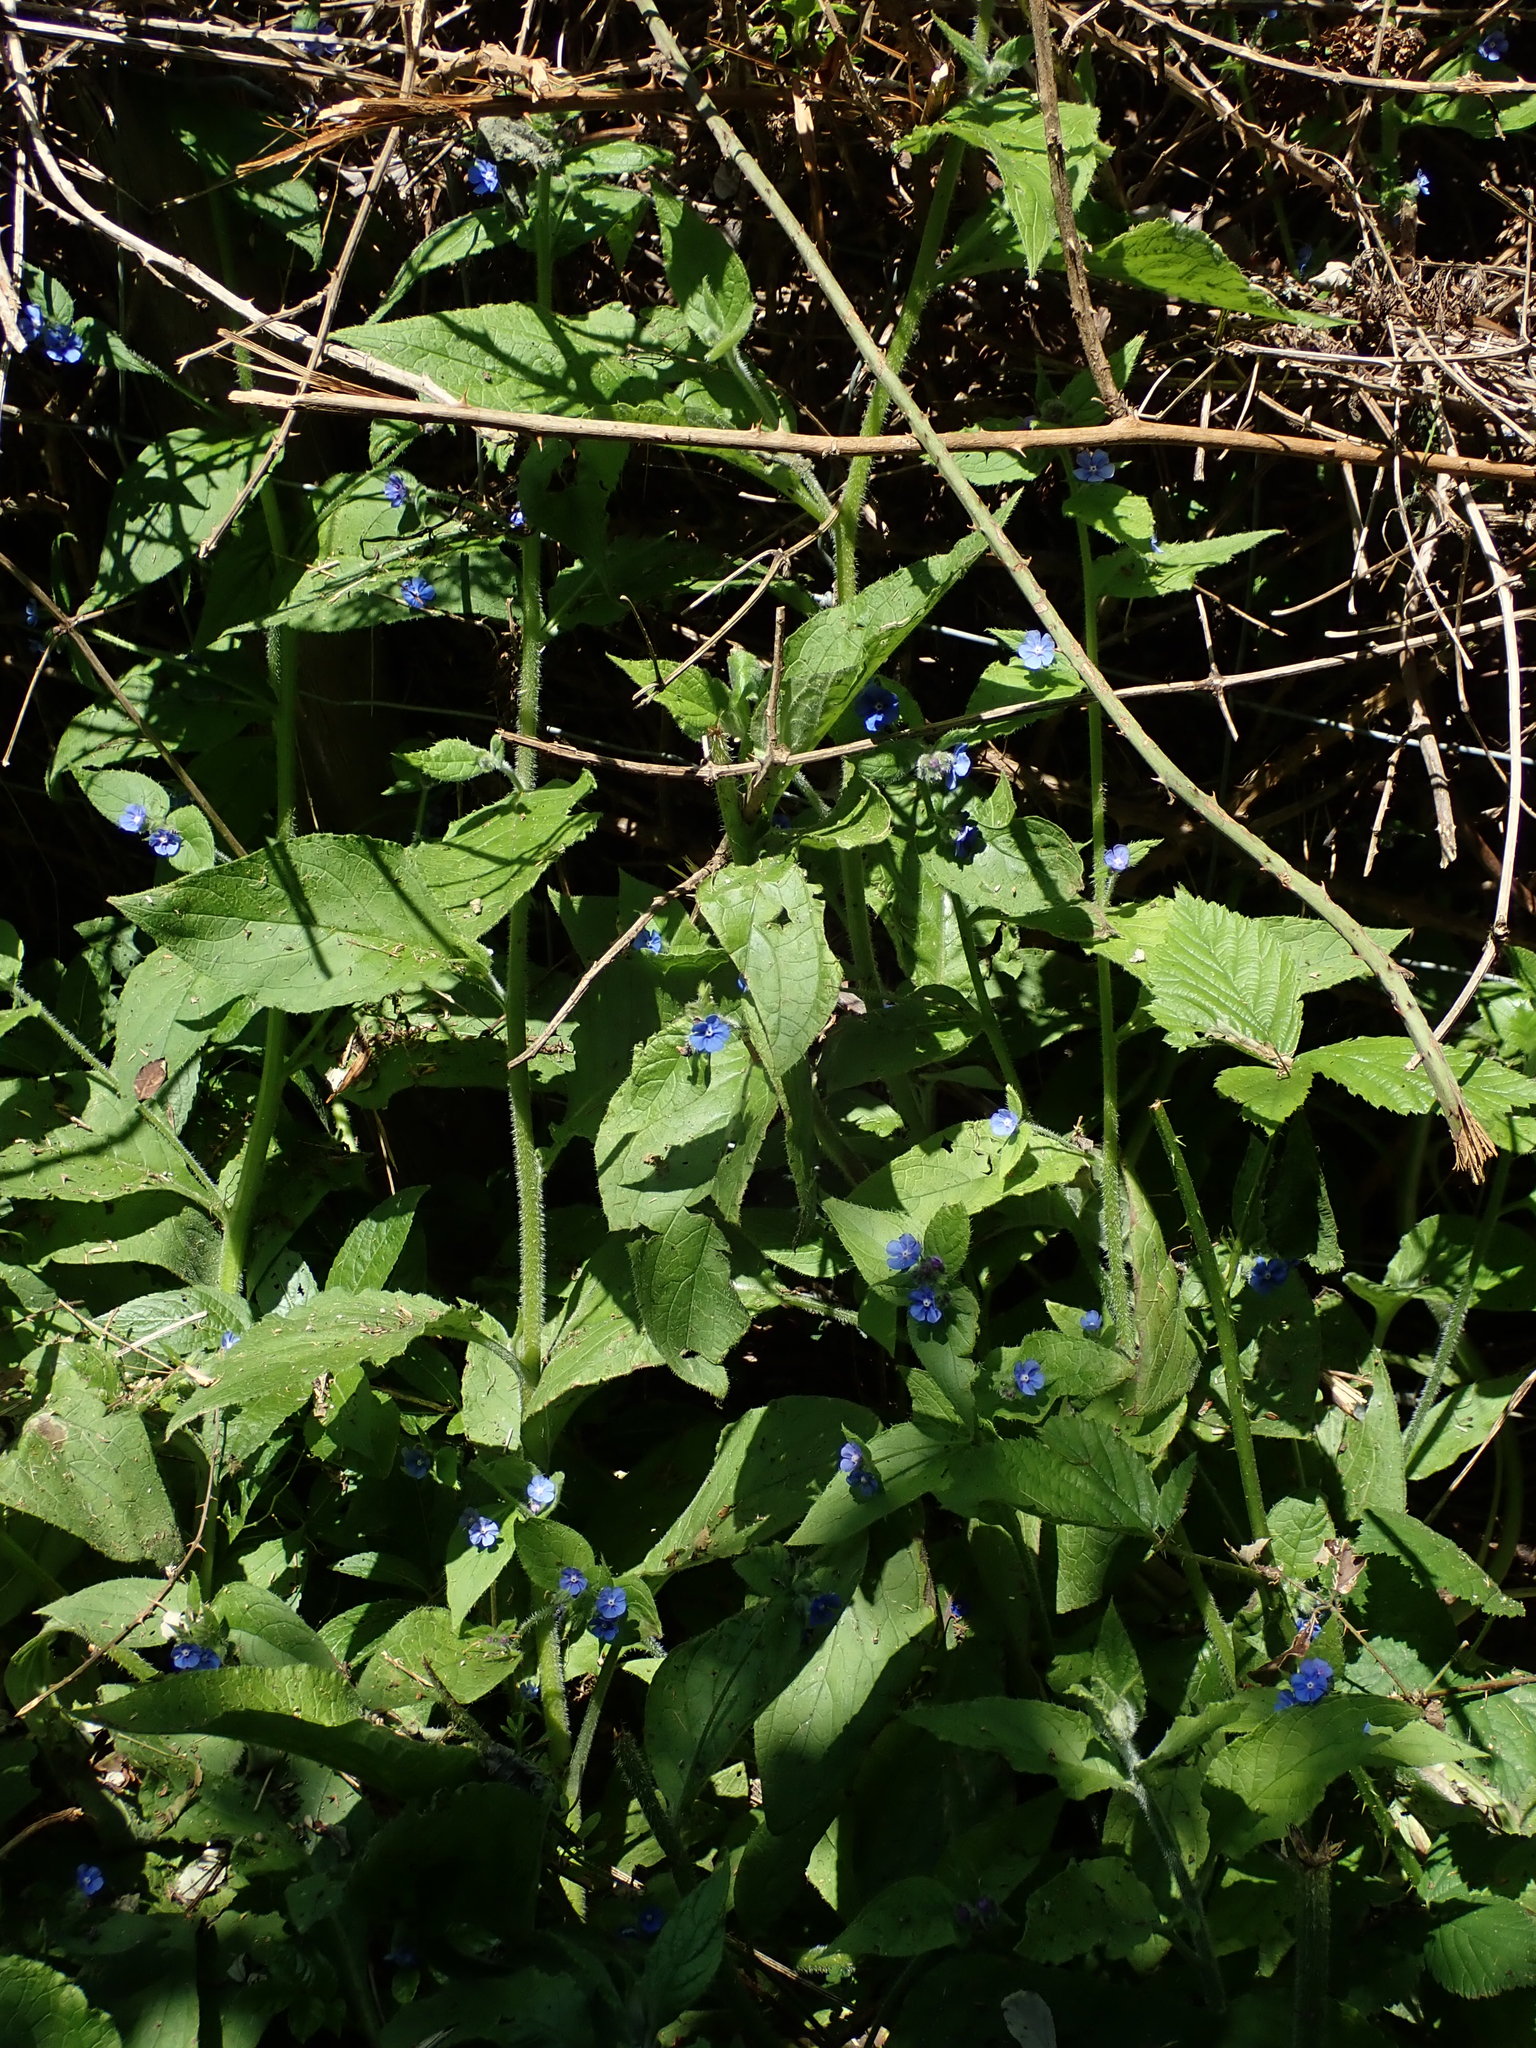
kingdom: Plantae
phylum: Tracheophyta
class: Magnoliopsida
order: Boraginales
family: Boraginaceae
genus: Pentaglottis
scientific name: Pentaglottis sempervirens
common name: Green alkanet
